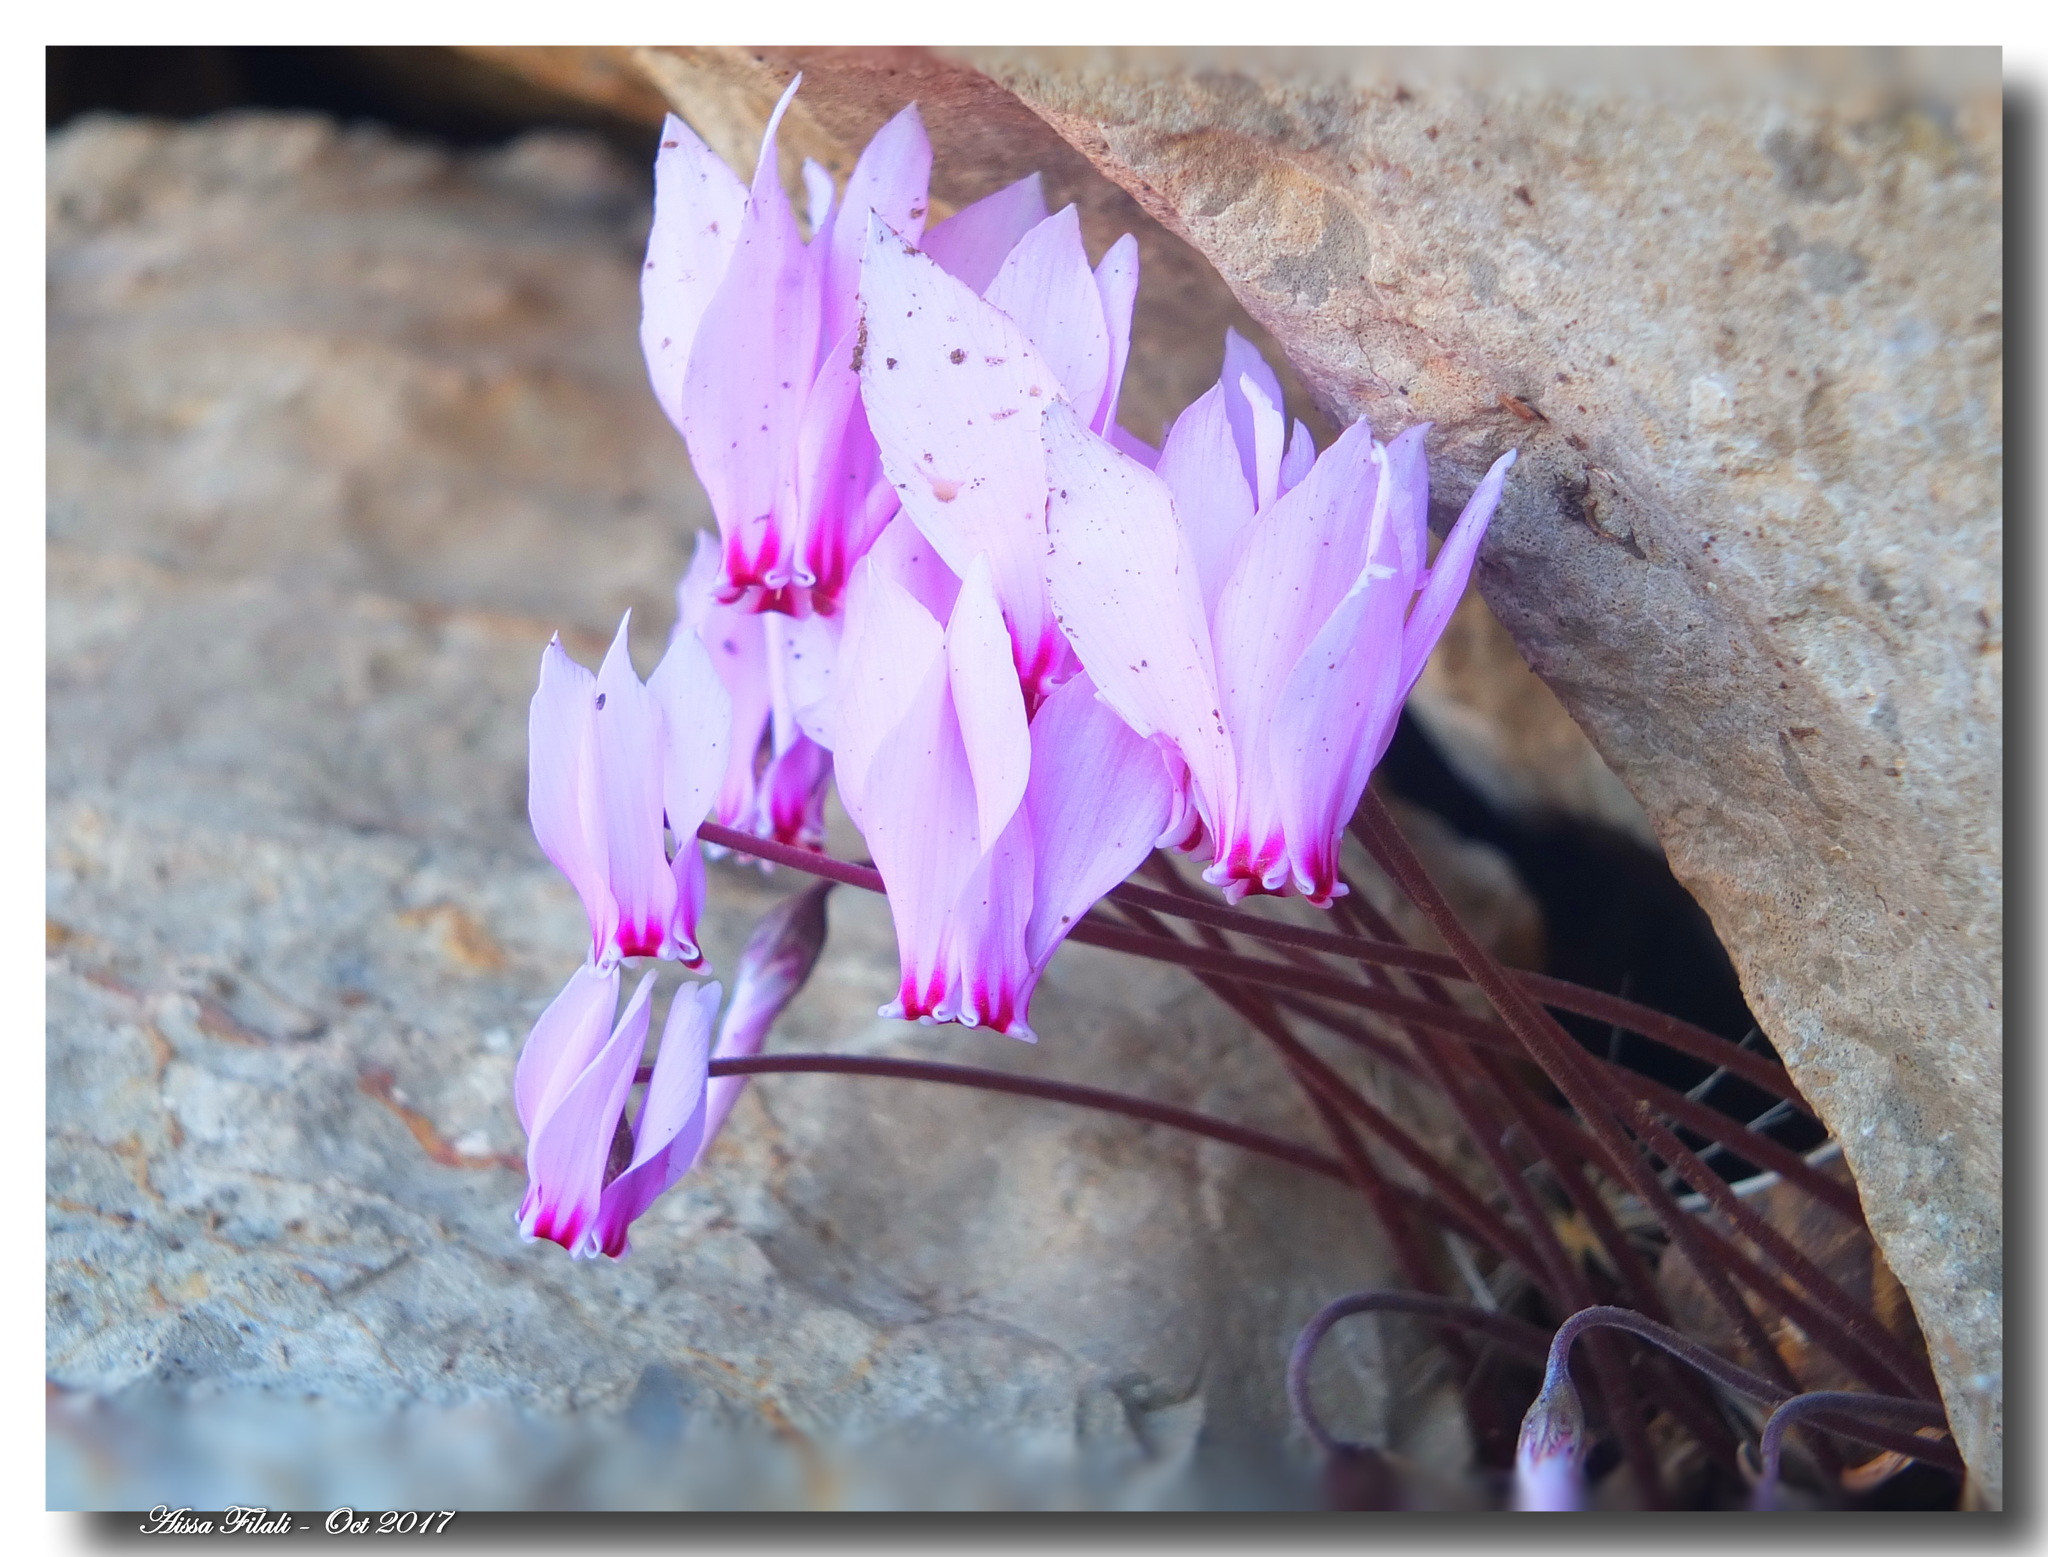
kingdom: Plantae
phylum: Tracheophyta
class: Magnoliopsida
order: Ericales
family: Primulaceae
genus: Cyclamen
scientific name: Cyclamen africanum
